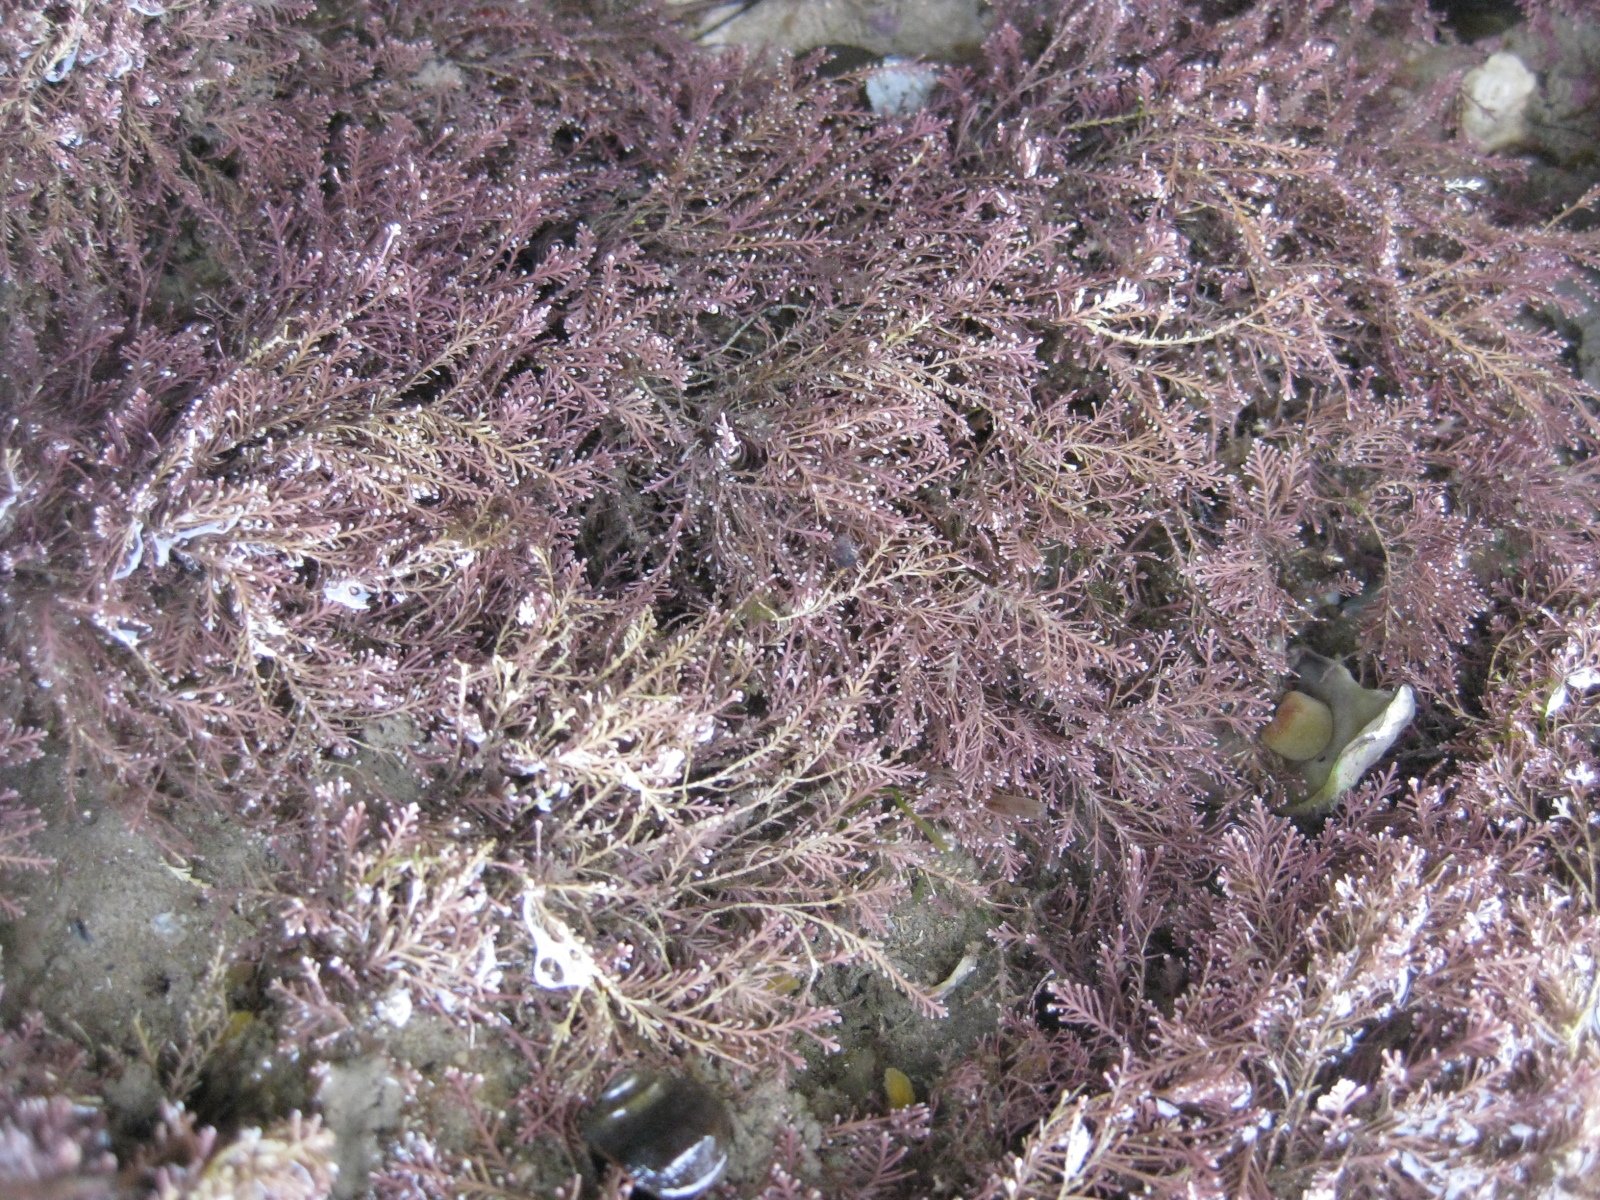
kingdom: Plantae
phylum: Rhodophyta
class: Florideophyceae
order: Corallinales
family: Corallinaceae
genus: Corallina
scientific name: Corallina officinalis
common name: Coral weed
